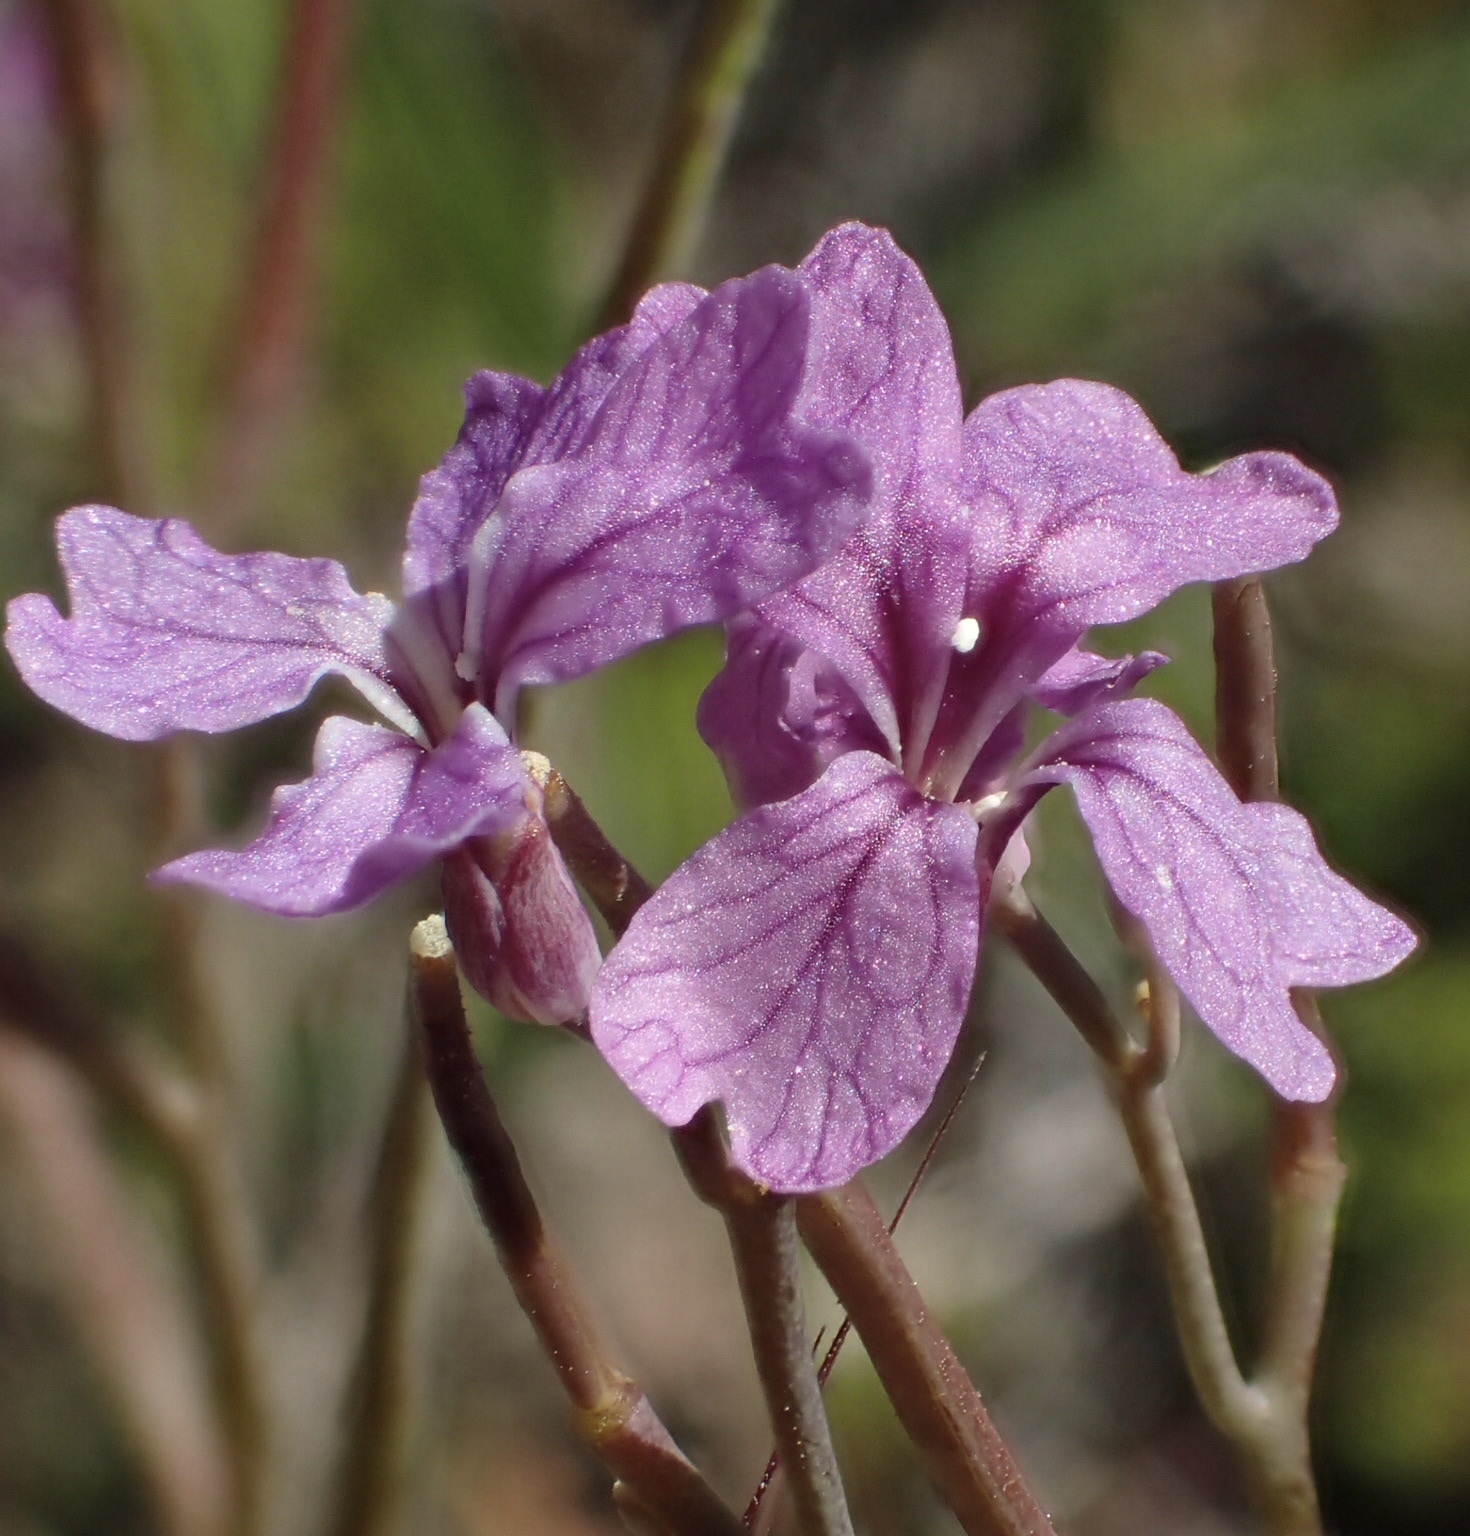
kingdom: Plantae
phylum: Tracheophyta
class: Magnoliopsida
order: Brassicales
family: Brassicaceae
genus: Streptanthus
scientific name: Streptanthus hammittii
